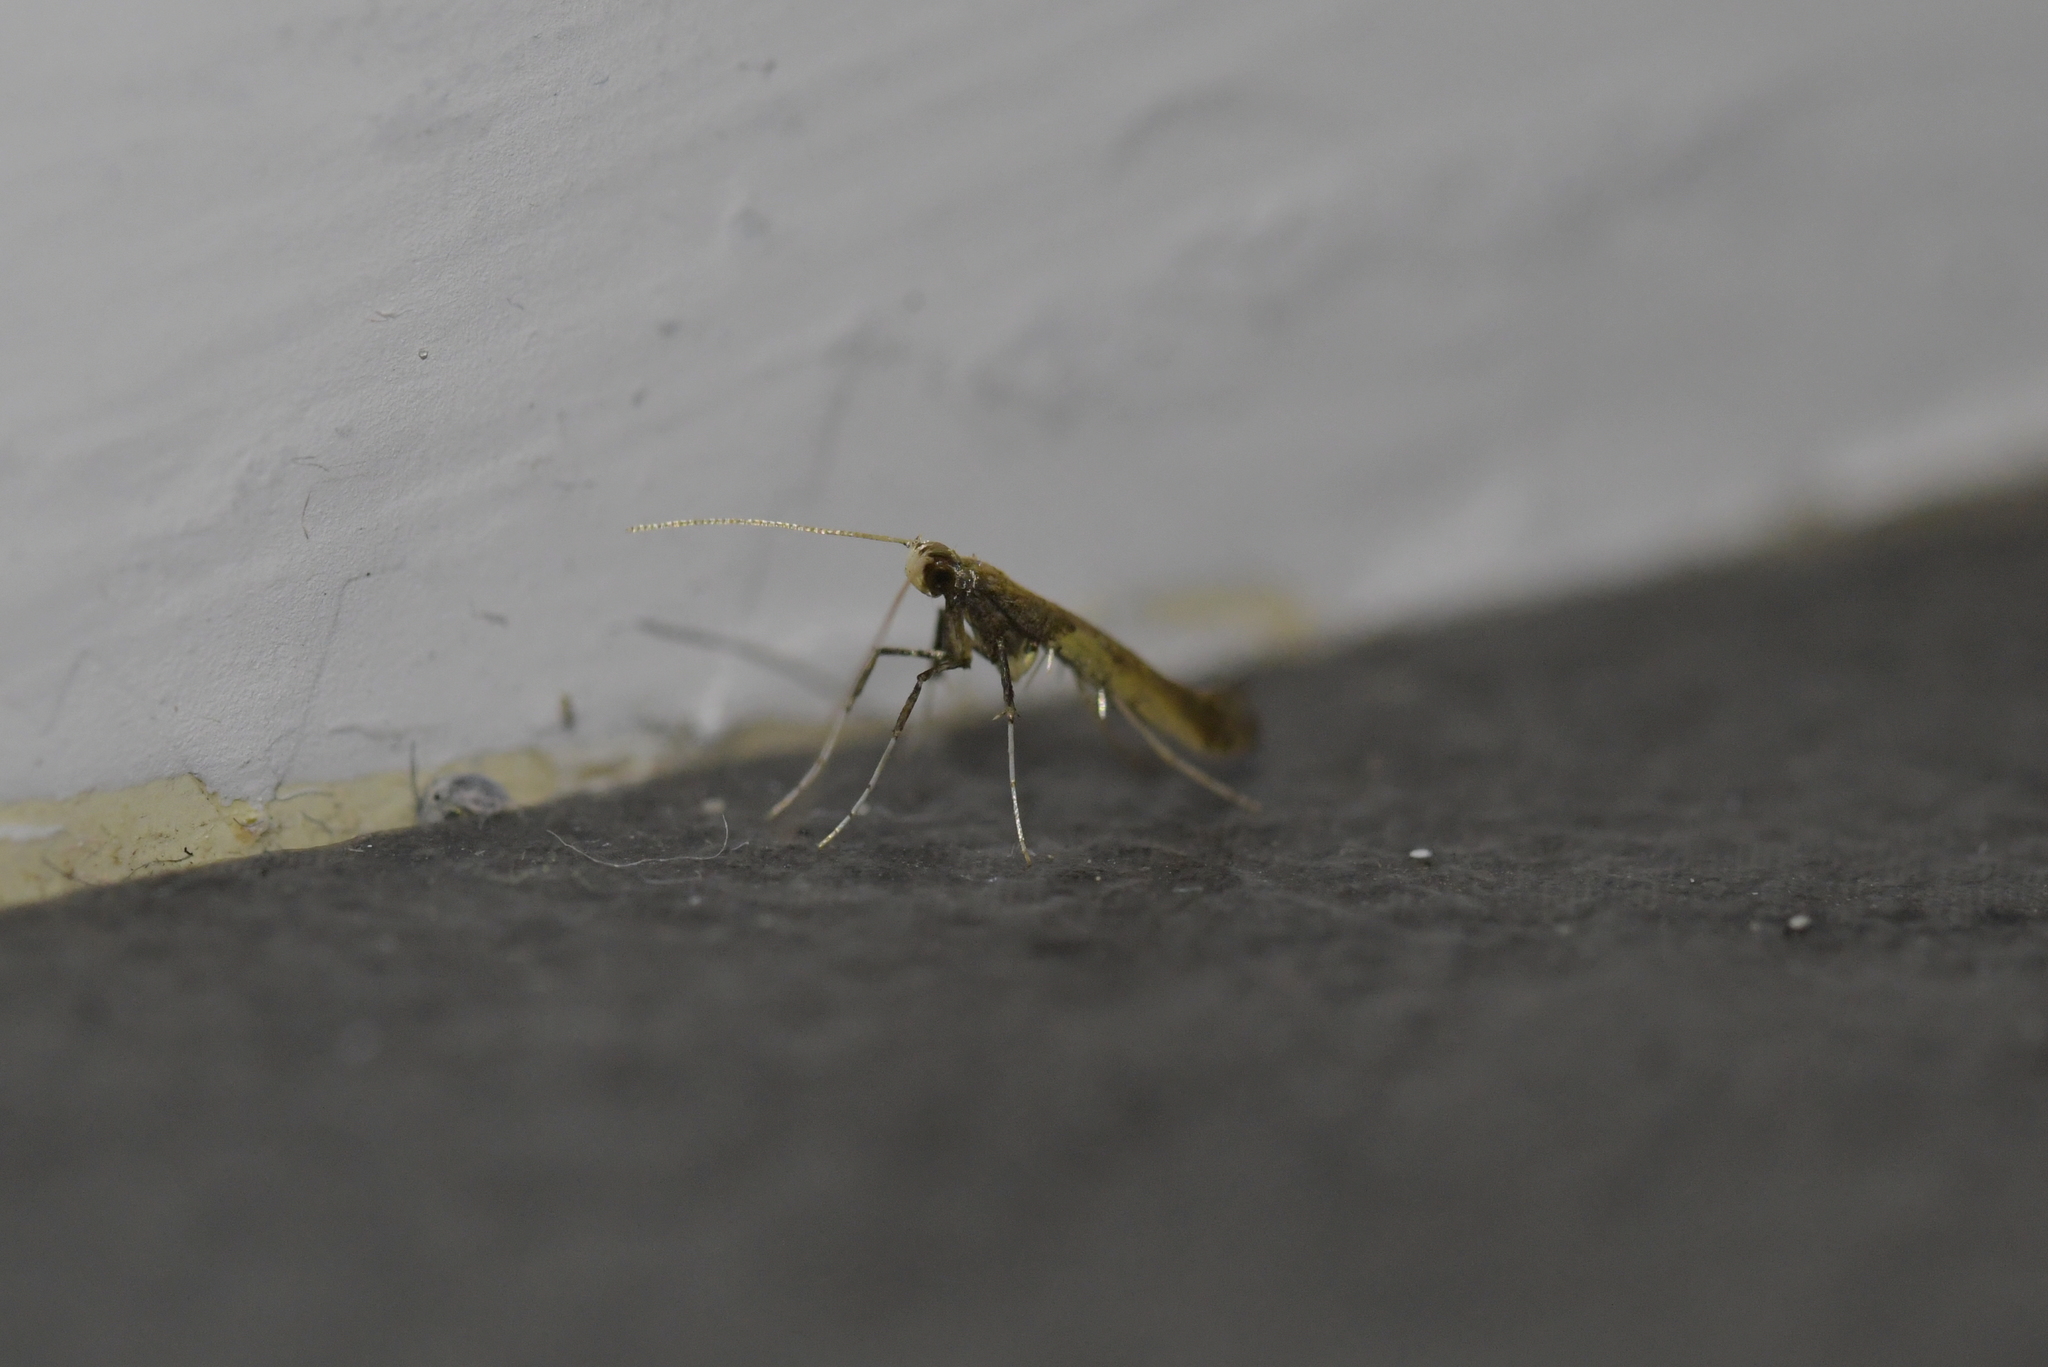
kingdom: Animalia
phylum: Arthropoda
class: Insecta
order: Lepidoptera
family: Gracillariidae
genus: Caloptilia
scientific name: Caloptilia azaleella
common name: Azalea leafminer
